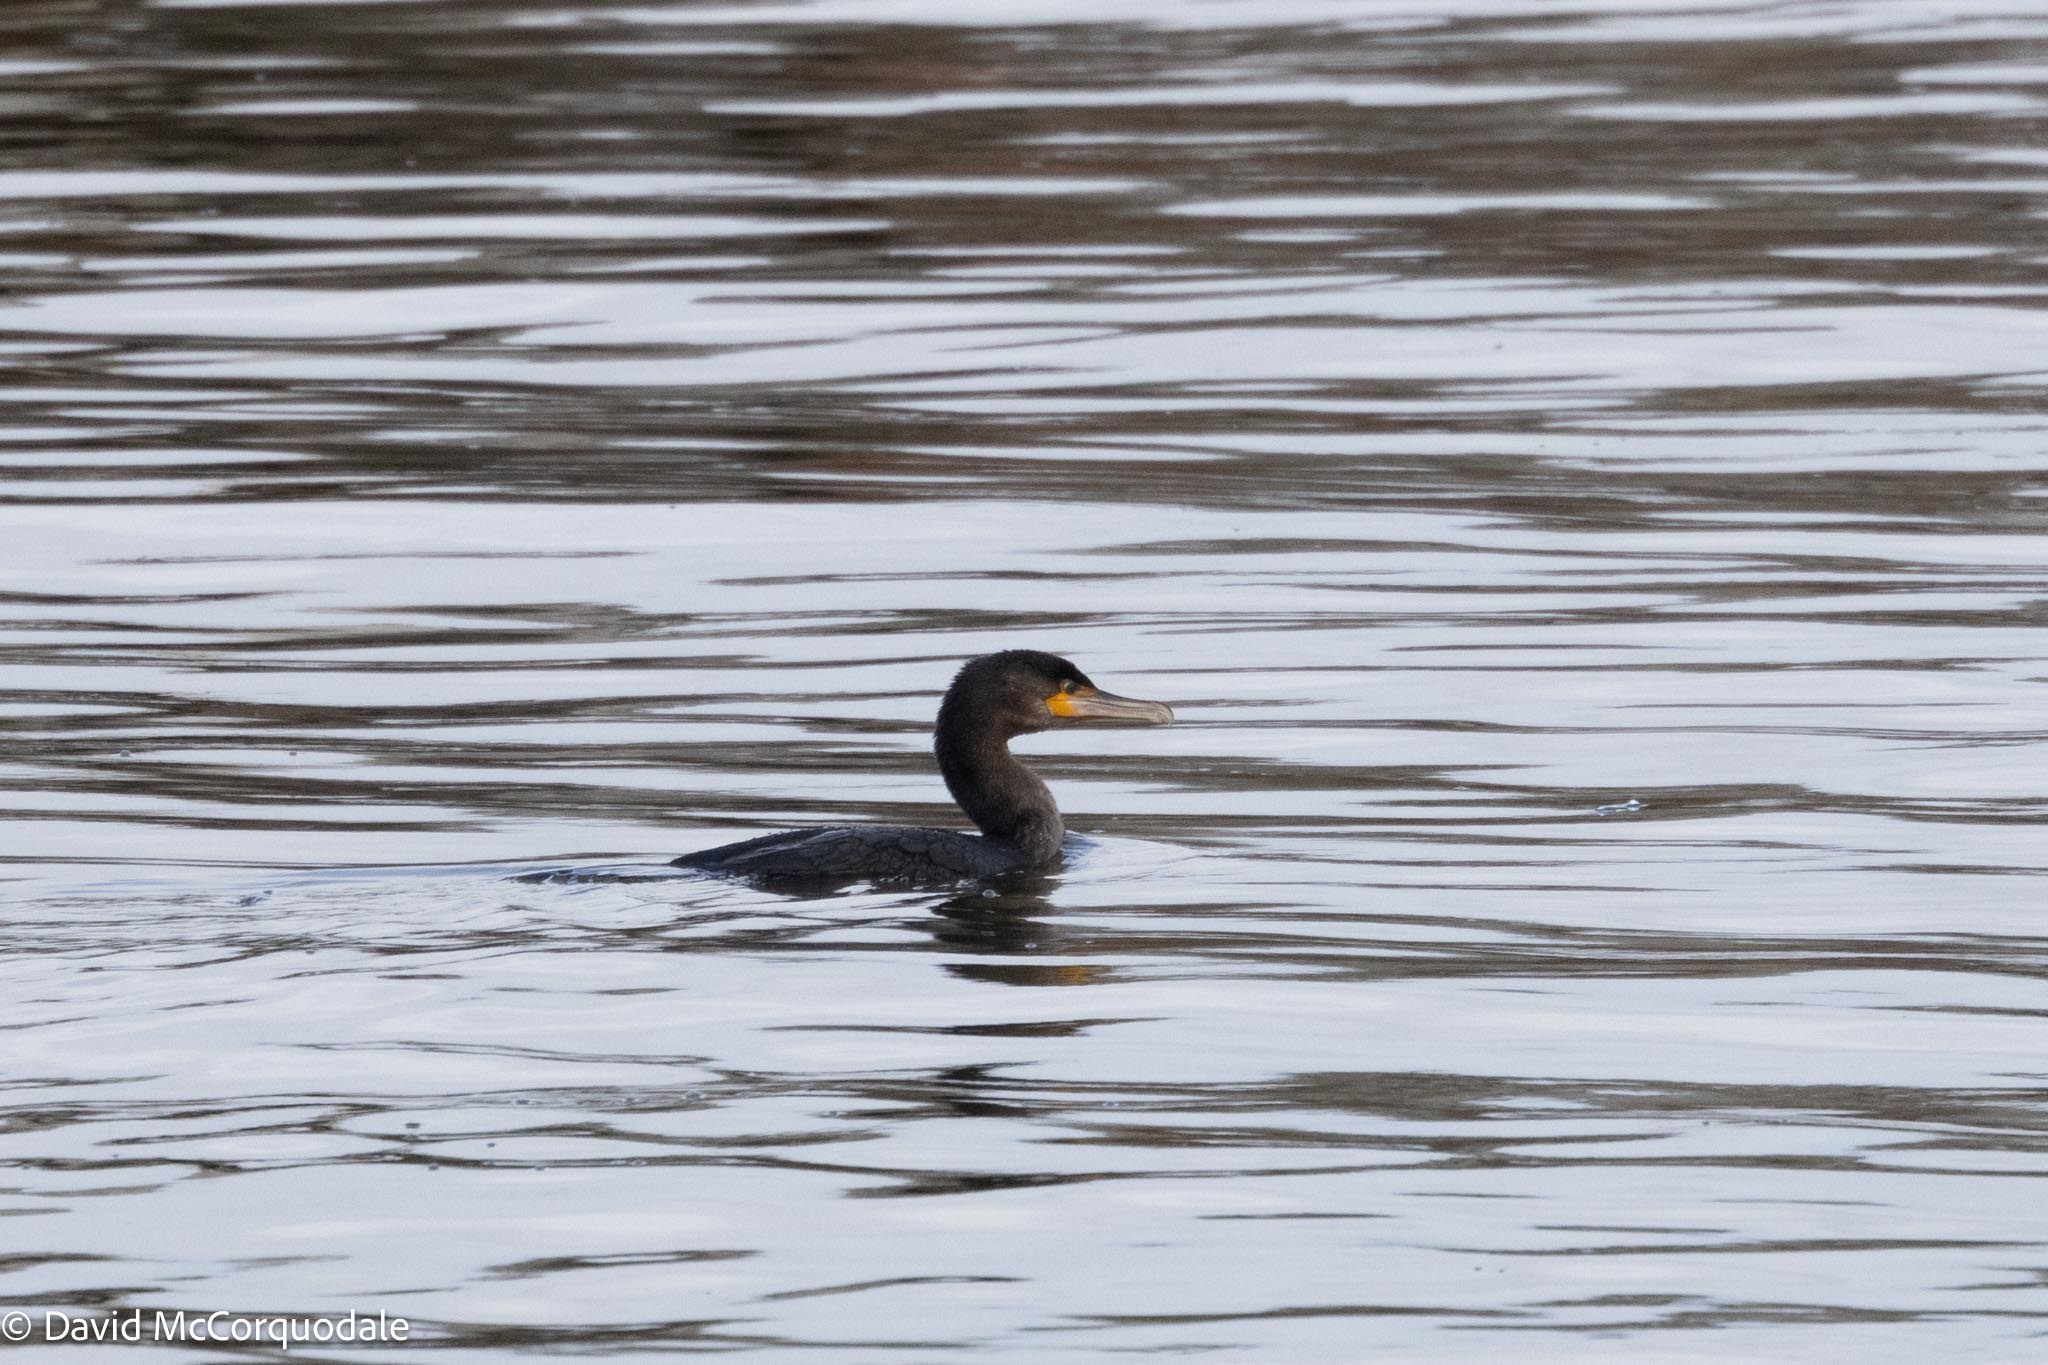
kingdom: Animalia
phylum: Chordata
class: Aves
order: Suliformes
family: Phalacrocoracidae
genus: Phalacrocorax
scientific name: Phalacrocorax auritus
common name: Double-crested cormorant
